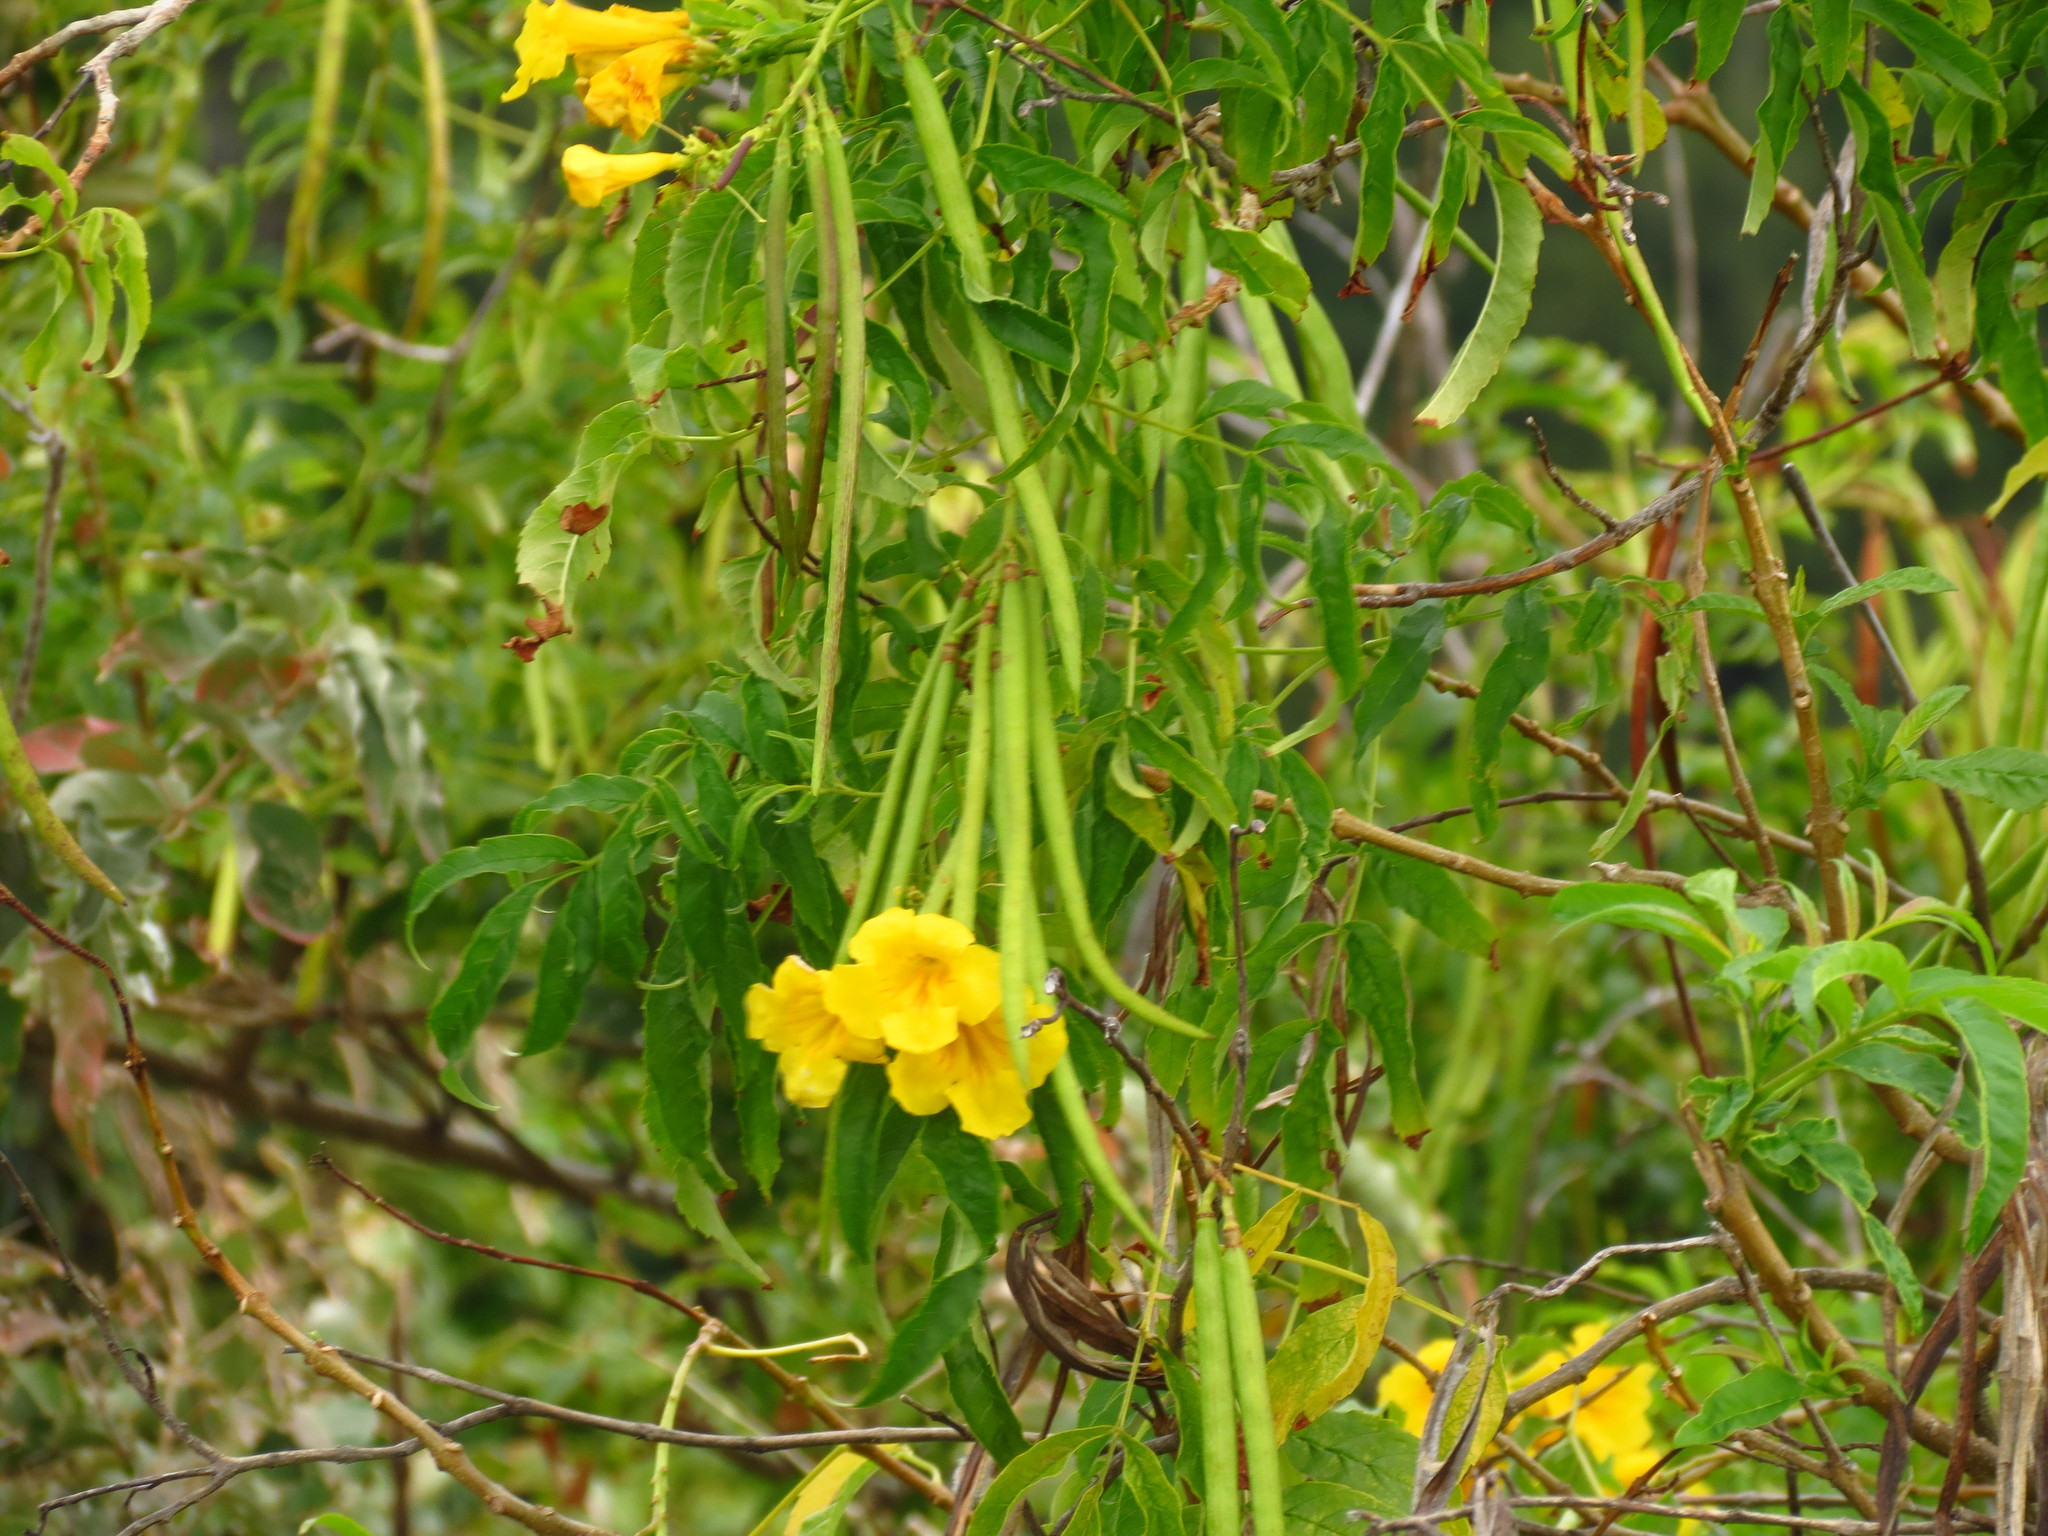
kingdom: Plantae
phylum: Tracheophyta
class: Magnoliopsida
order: Lamiales
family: Bignoniaceae
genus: Tecoma
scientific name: Tecoma stans
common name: Yellow trumpetbush
